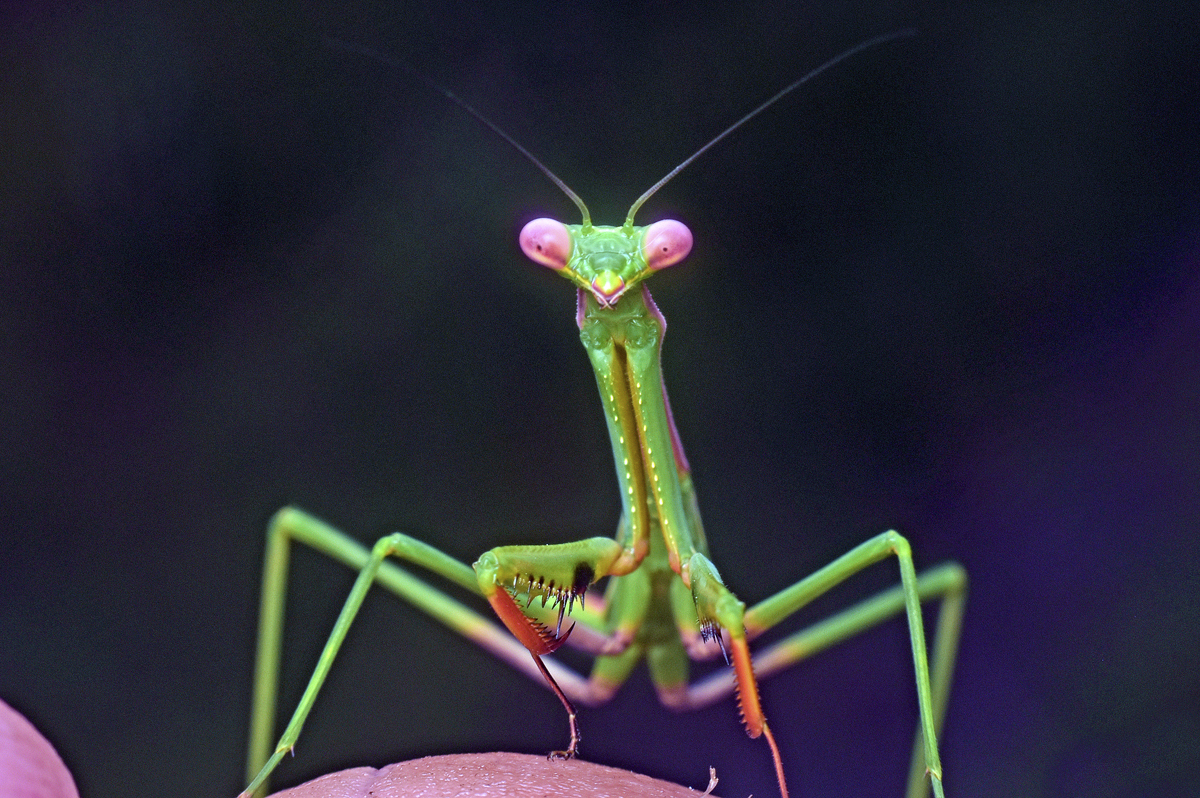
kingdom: Animalia
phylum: Arthropoda
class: Insecta
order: Mantodea
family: Mantidae
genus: Pseudomantis
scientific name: Pseudomantis albofimbriata
